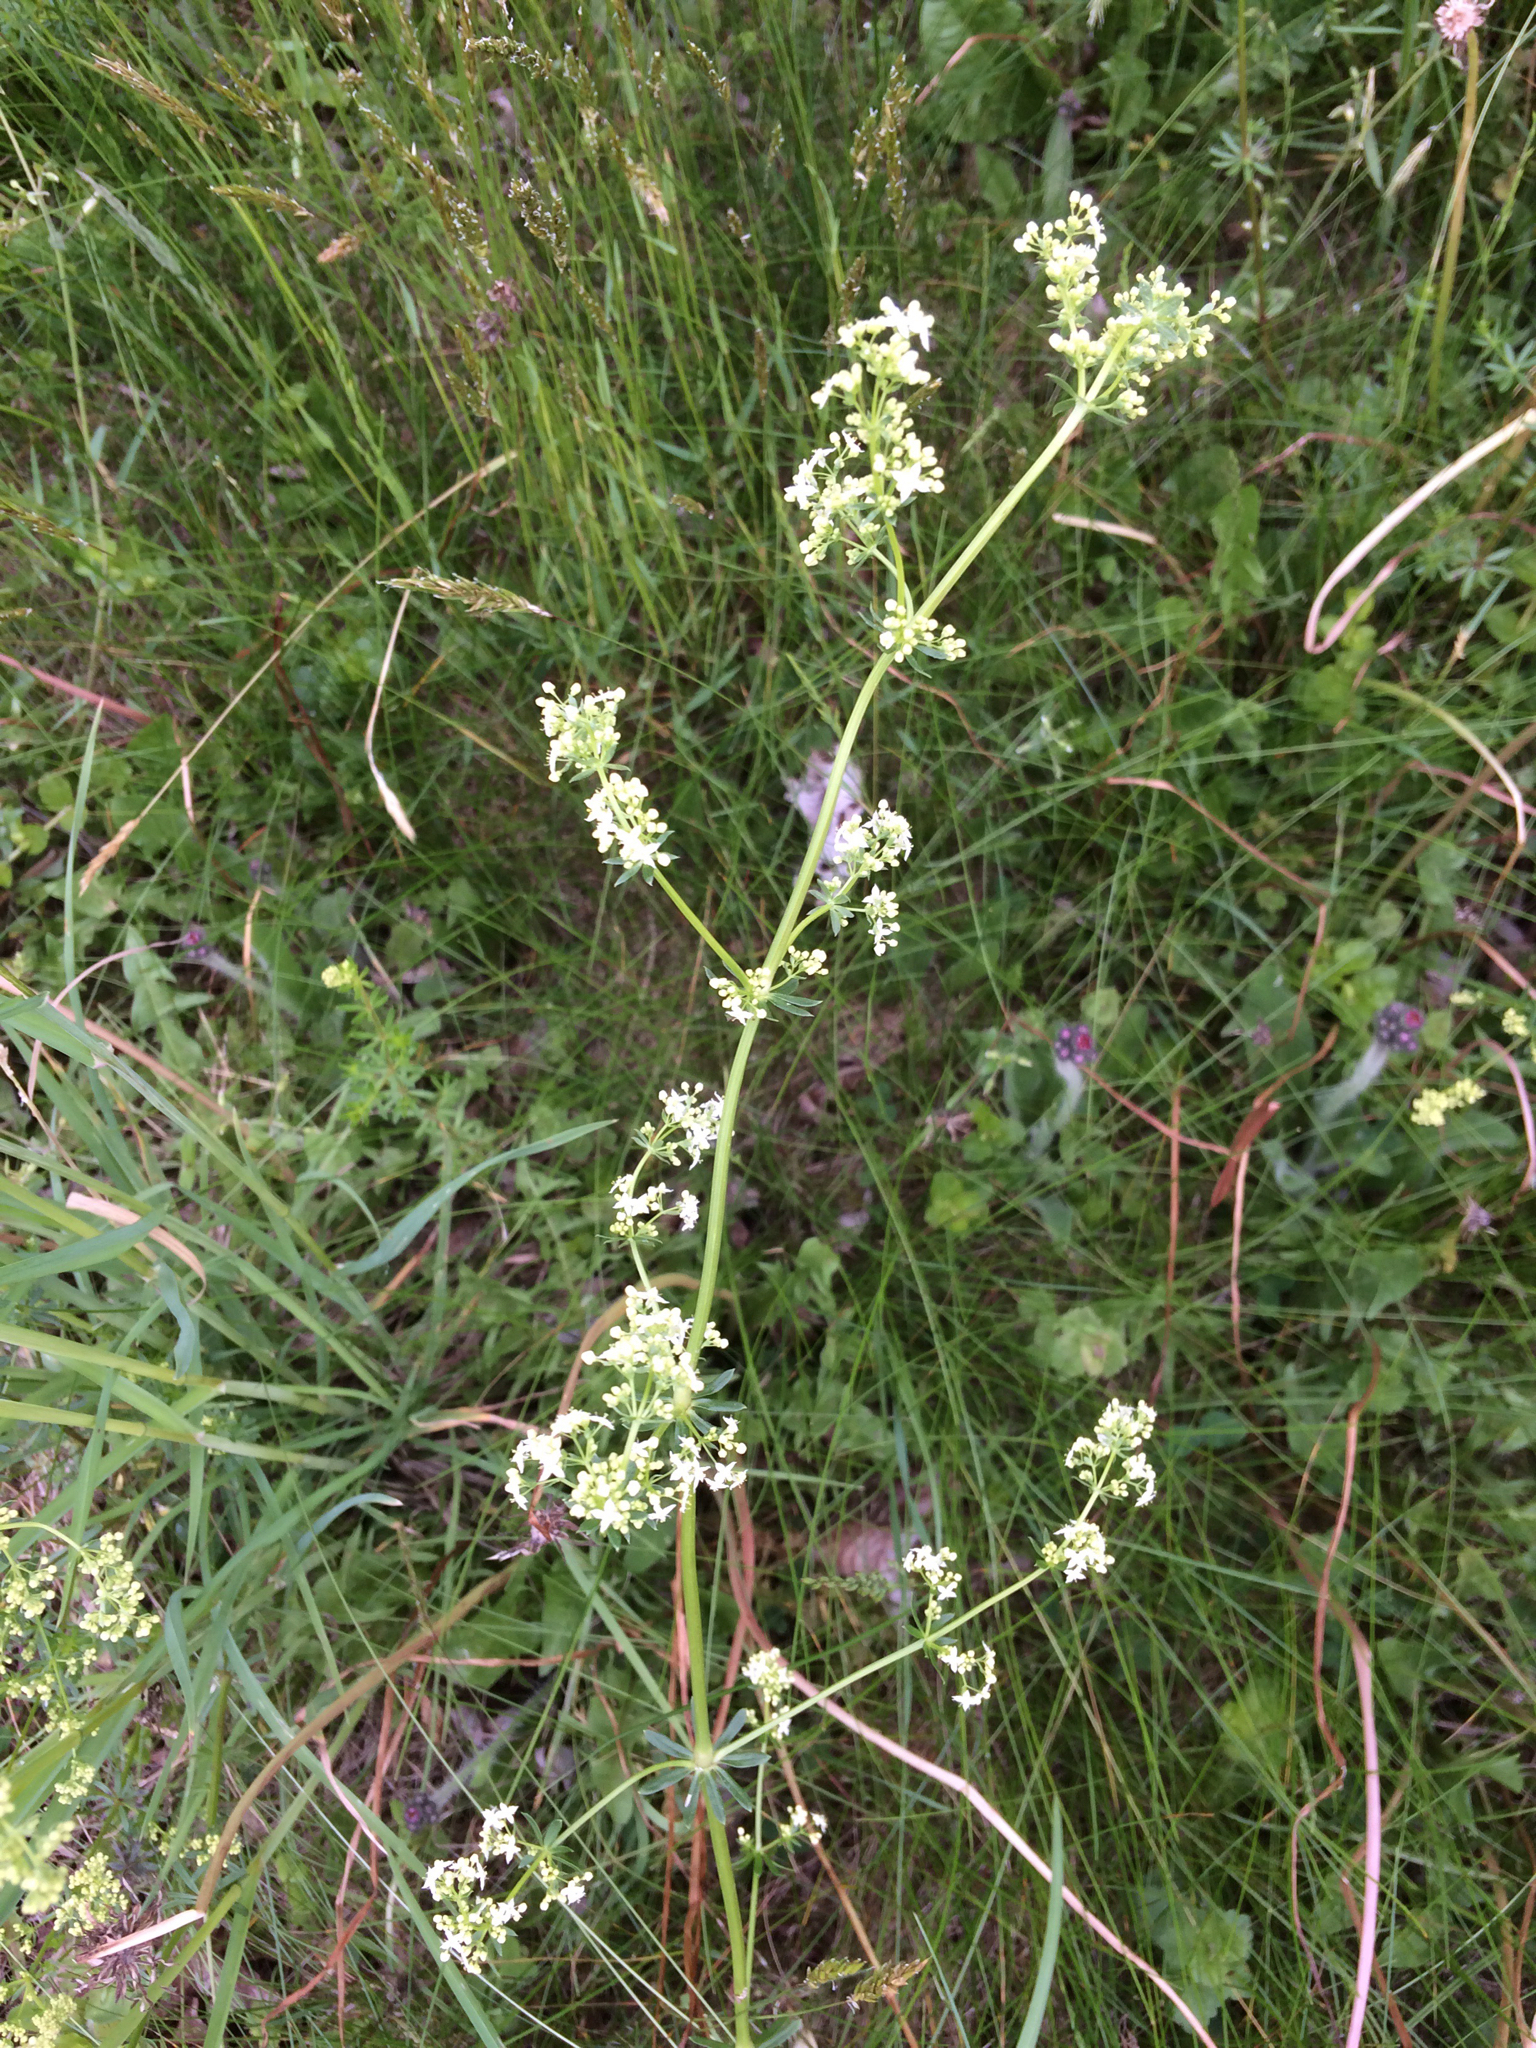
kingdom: Plantae
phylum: Tracheophyta
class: Magnoliopsida
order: Gentianales
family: Rubiaceae
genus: Galium
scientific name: Galium mollugo
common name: Hedge bedstraw
